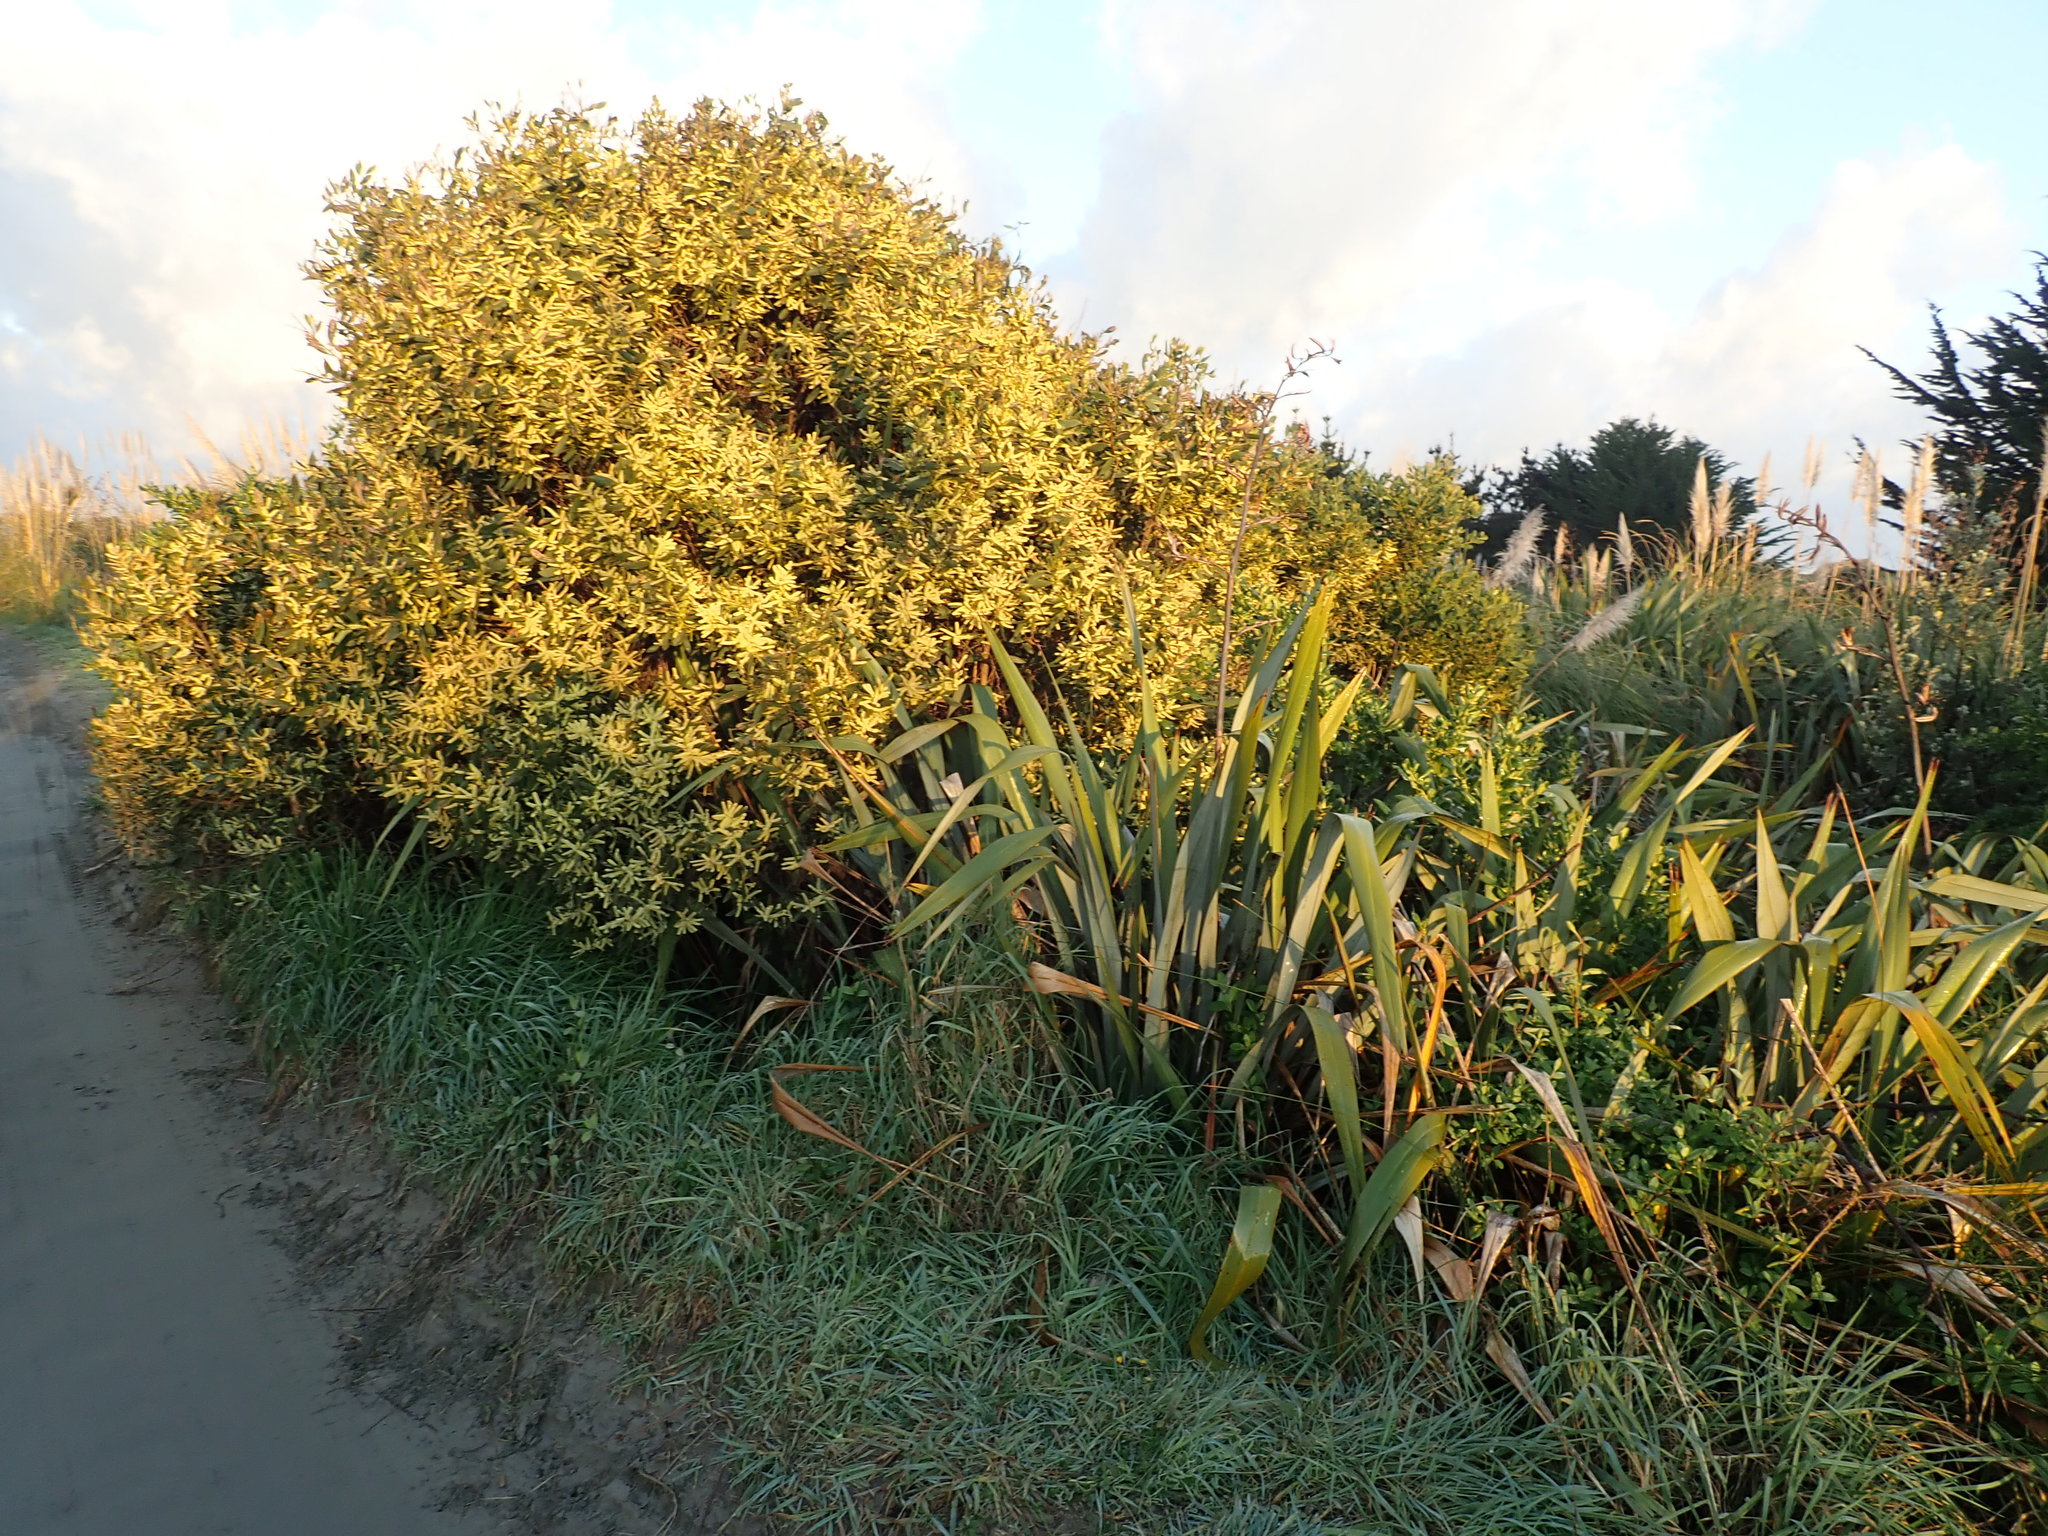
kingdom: Plantae
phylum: Tracheophyta
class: Magnoliopsida
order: Fabales
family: Fabaceae
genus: Acacia
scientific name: Acacia longifolia
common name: Sydney golden wattle
